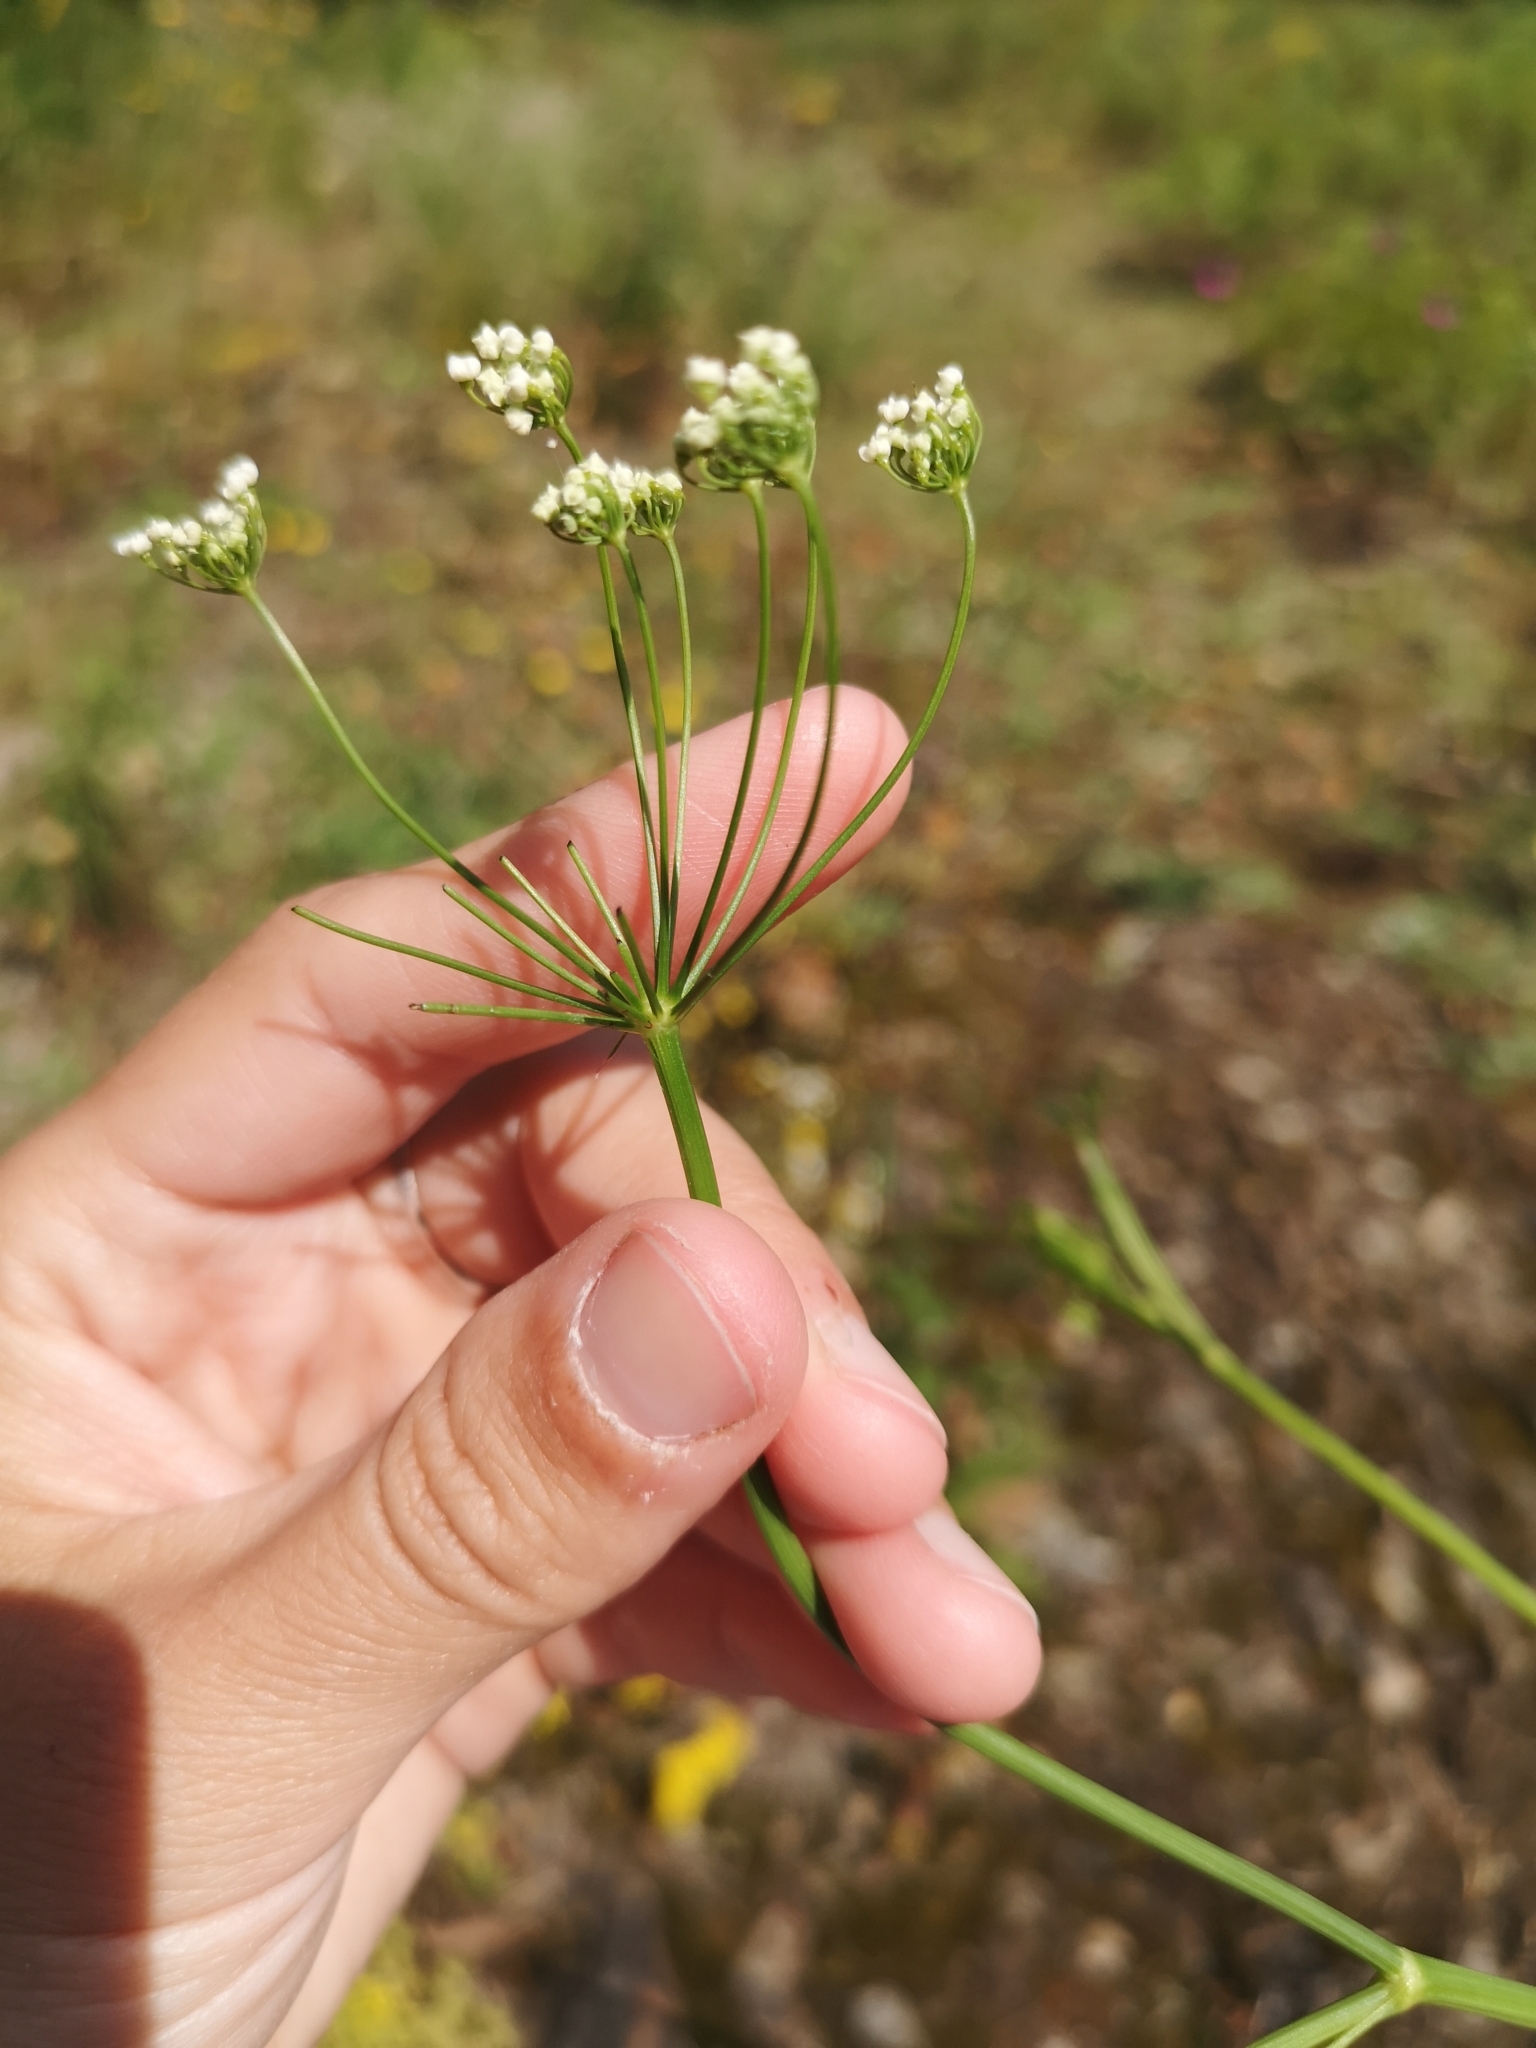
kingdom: Plantae
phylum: Tracheophyta
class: Magnoliopsida
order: Apiales
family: Apiaceae
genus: Pimpinella
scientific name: Pimpinella saxifraga
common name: Burnet-saxifrage
